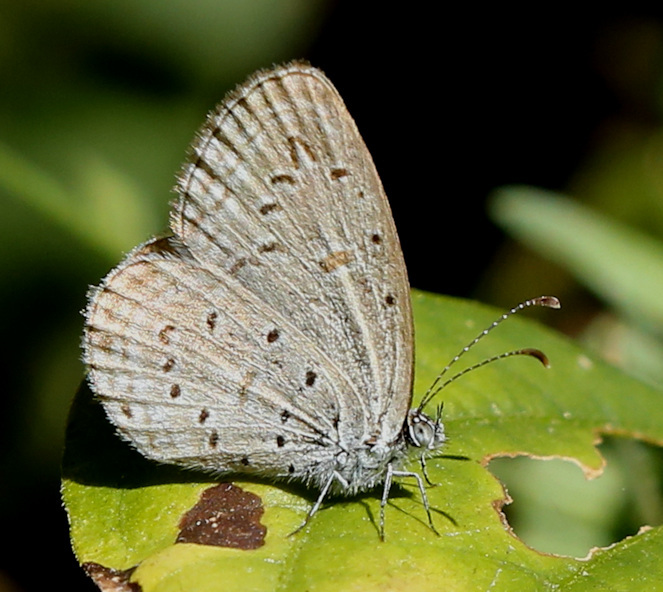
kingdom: Animalia
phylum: Arthropoda
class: Insecta
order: Lepidoptera
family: Lycaenidae
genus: Zizula
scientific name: Zizula hylax
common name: Gaika blue
